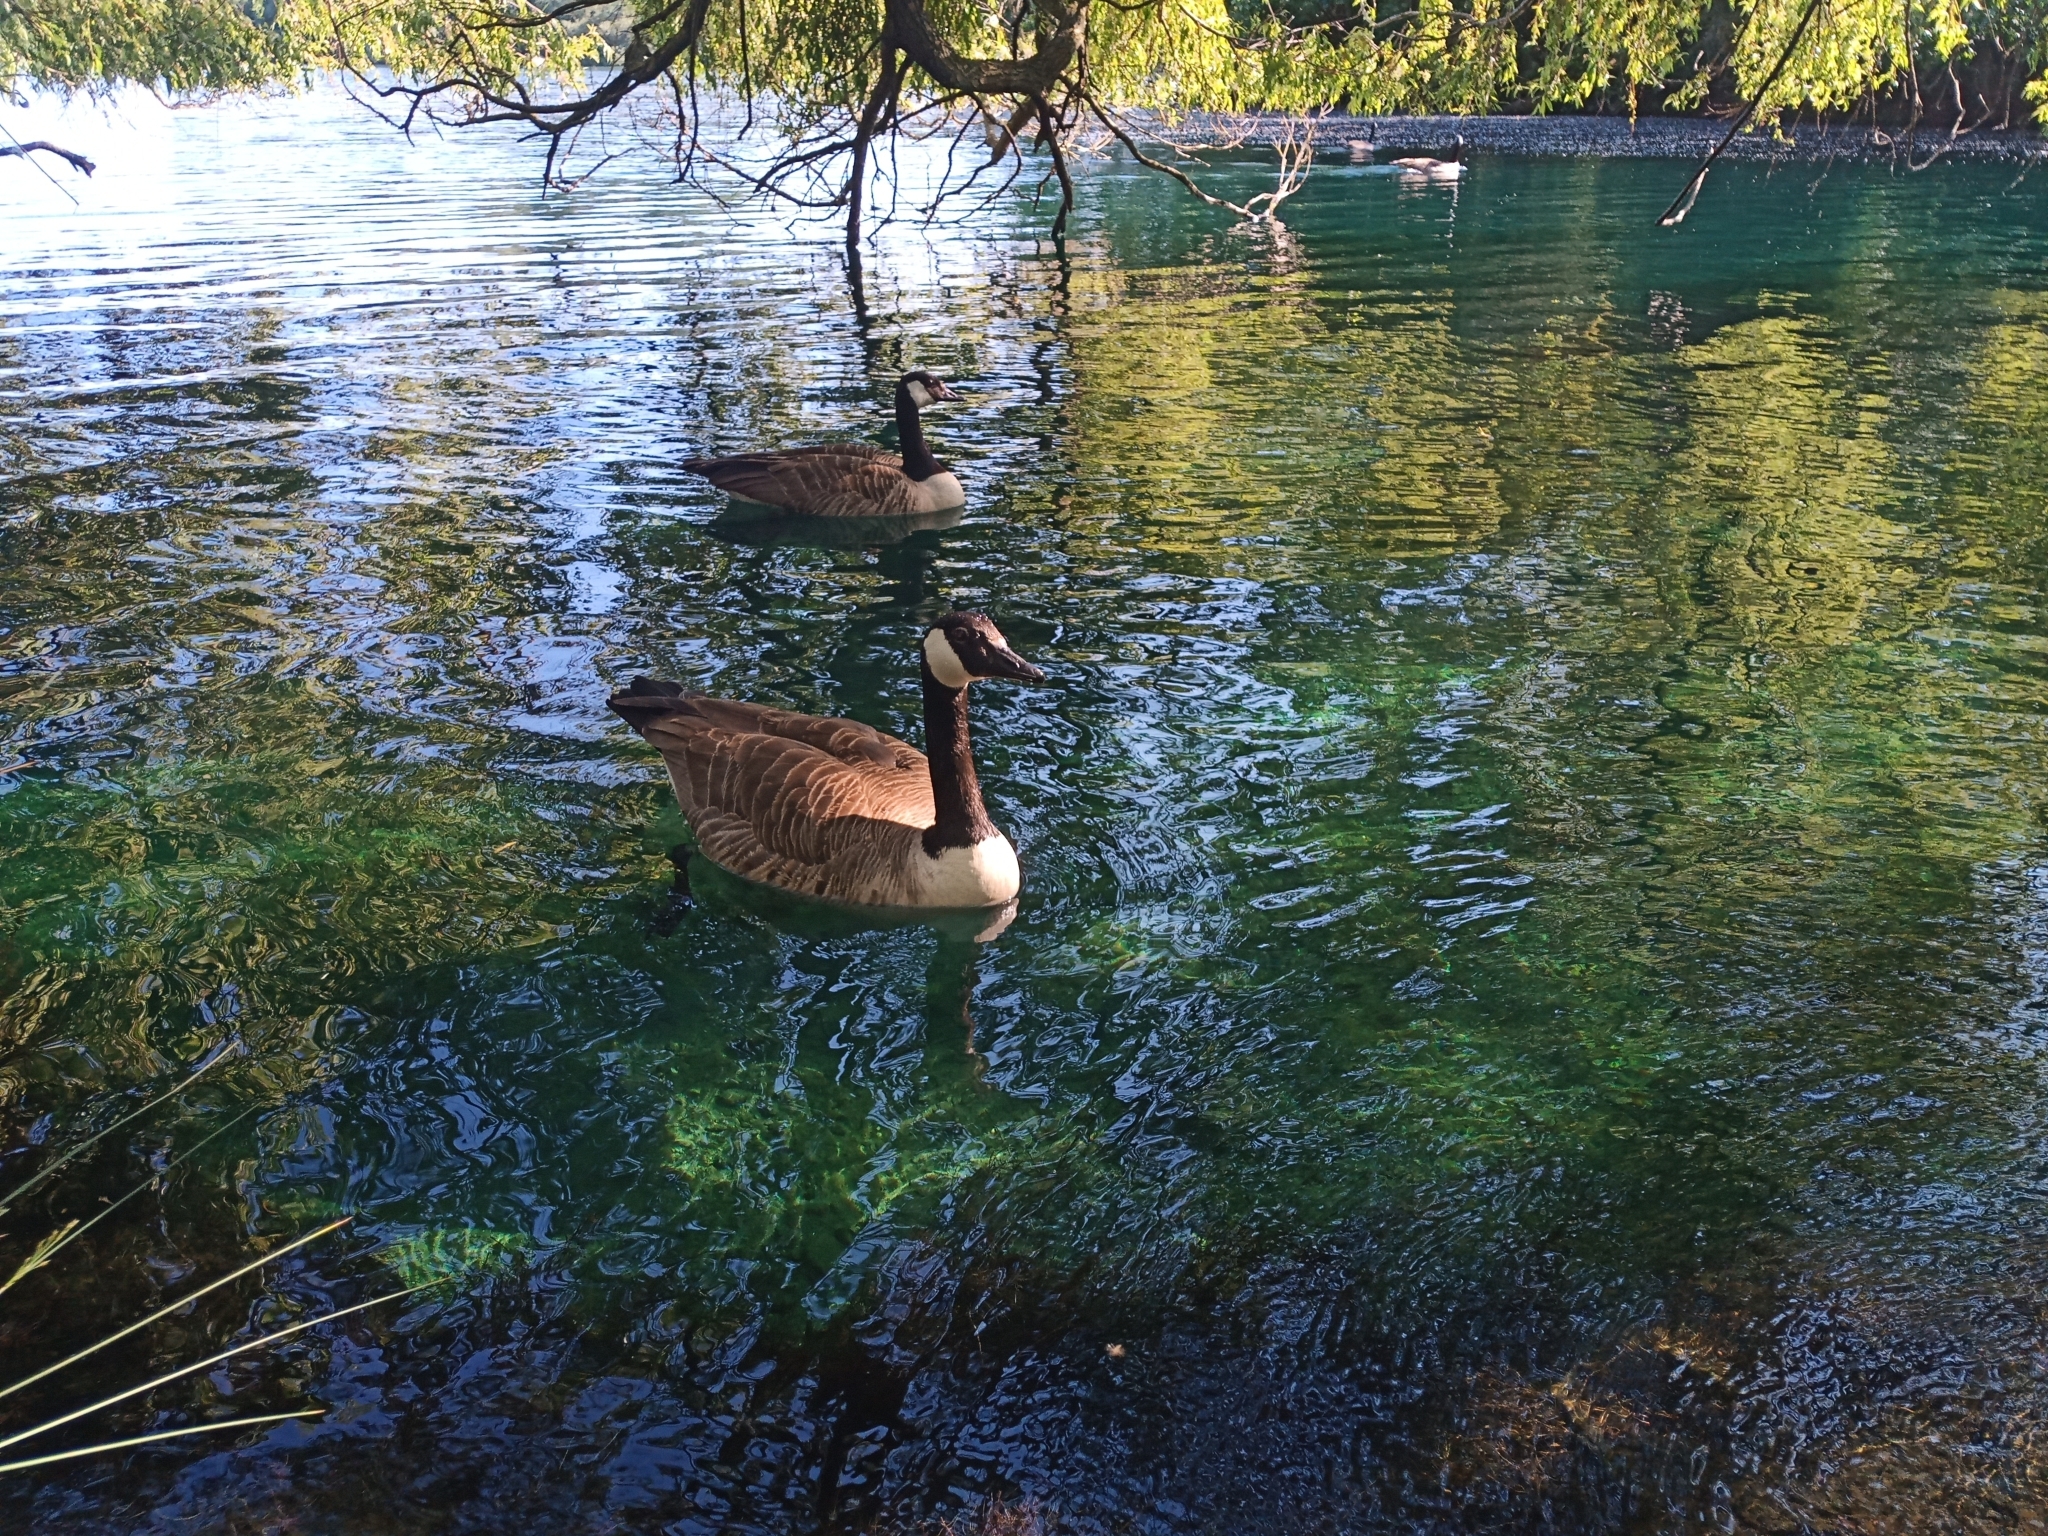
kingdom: Animalia
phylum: Chordata
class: Aves
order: Anseriformes
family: Anatidae
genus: Branta
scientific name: Branta canadensis
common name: Canada goose
